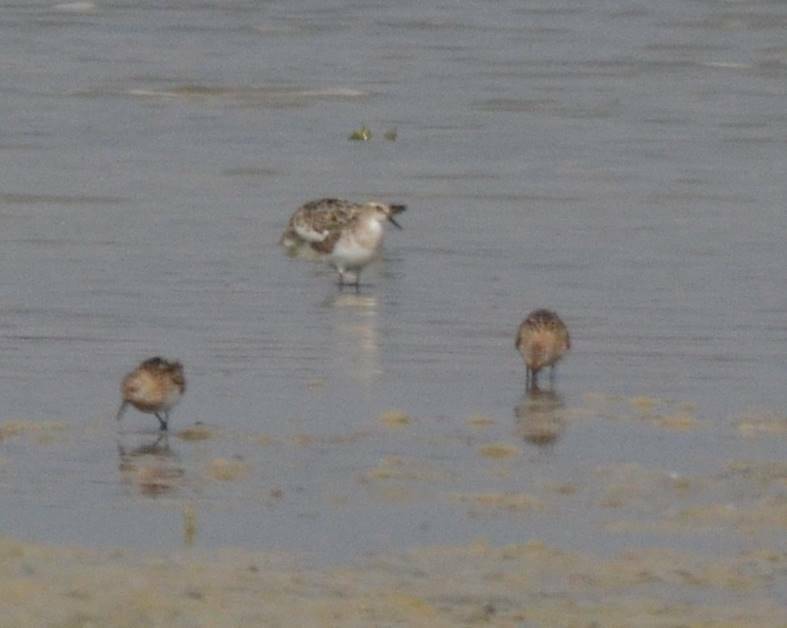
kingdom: Animalia
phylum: Chordata
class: Aves
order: Charadriiformes
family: Scolopacidae
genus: Calidris
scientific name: Calidris minuta
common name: Little stint
